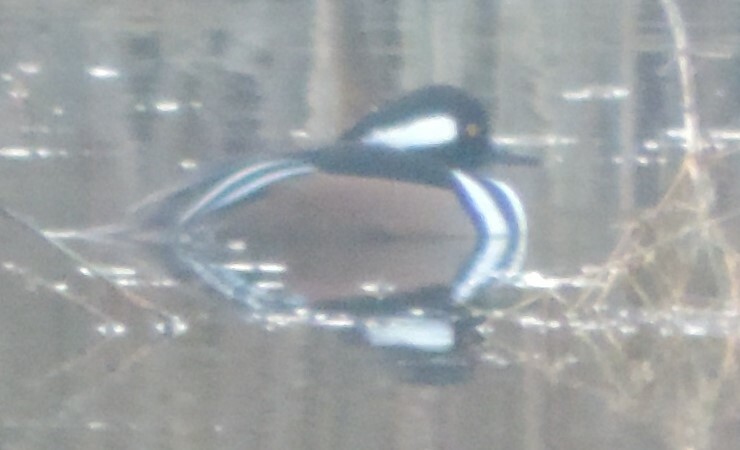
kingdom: Animalia
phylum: Chordata
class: Aves
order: Anseriformes
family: Anatidae
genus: Lophodytes
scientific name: Lophodytes cucullatus
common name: Hooded merganser
